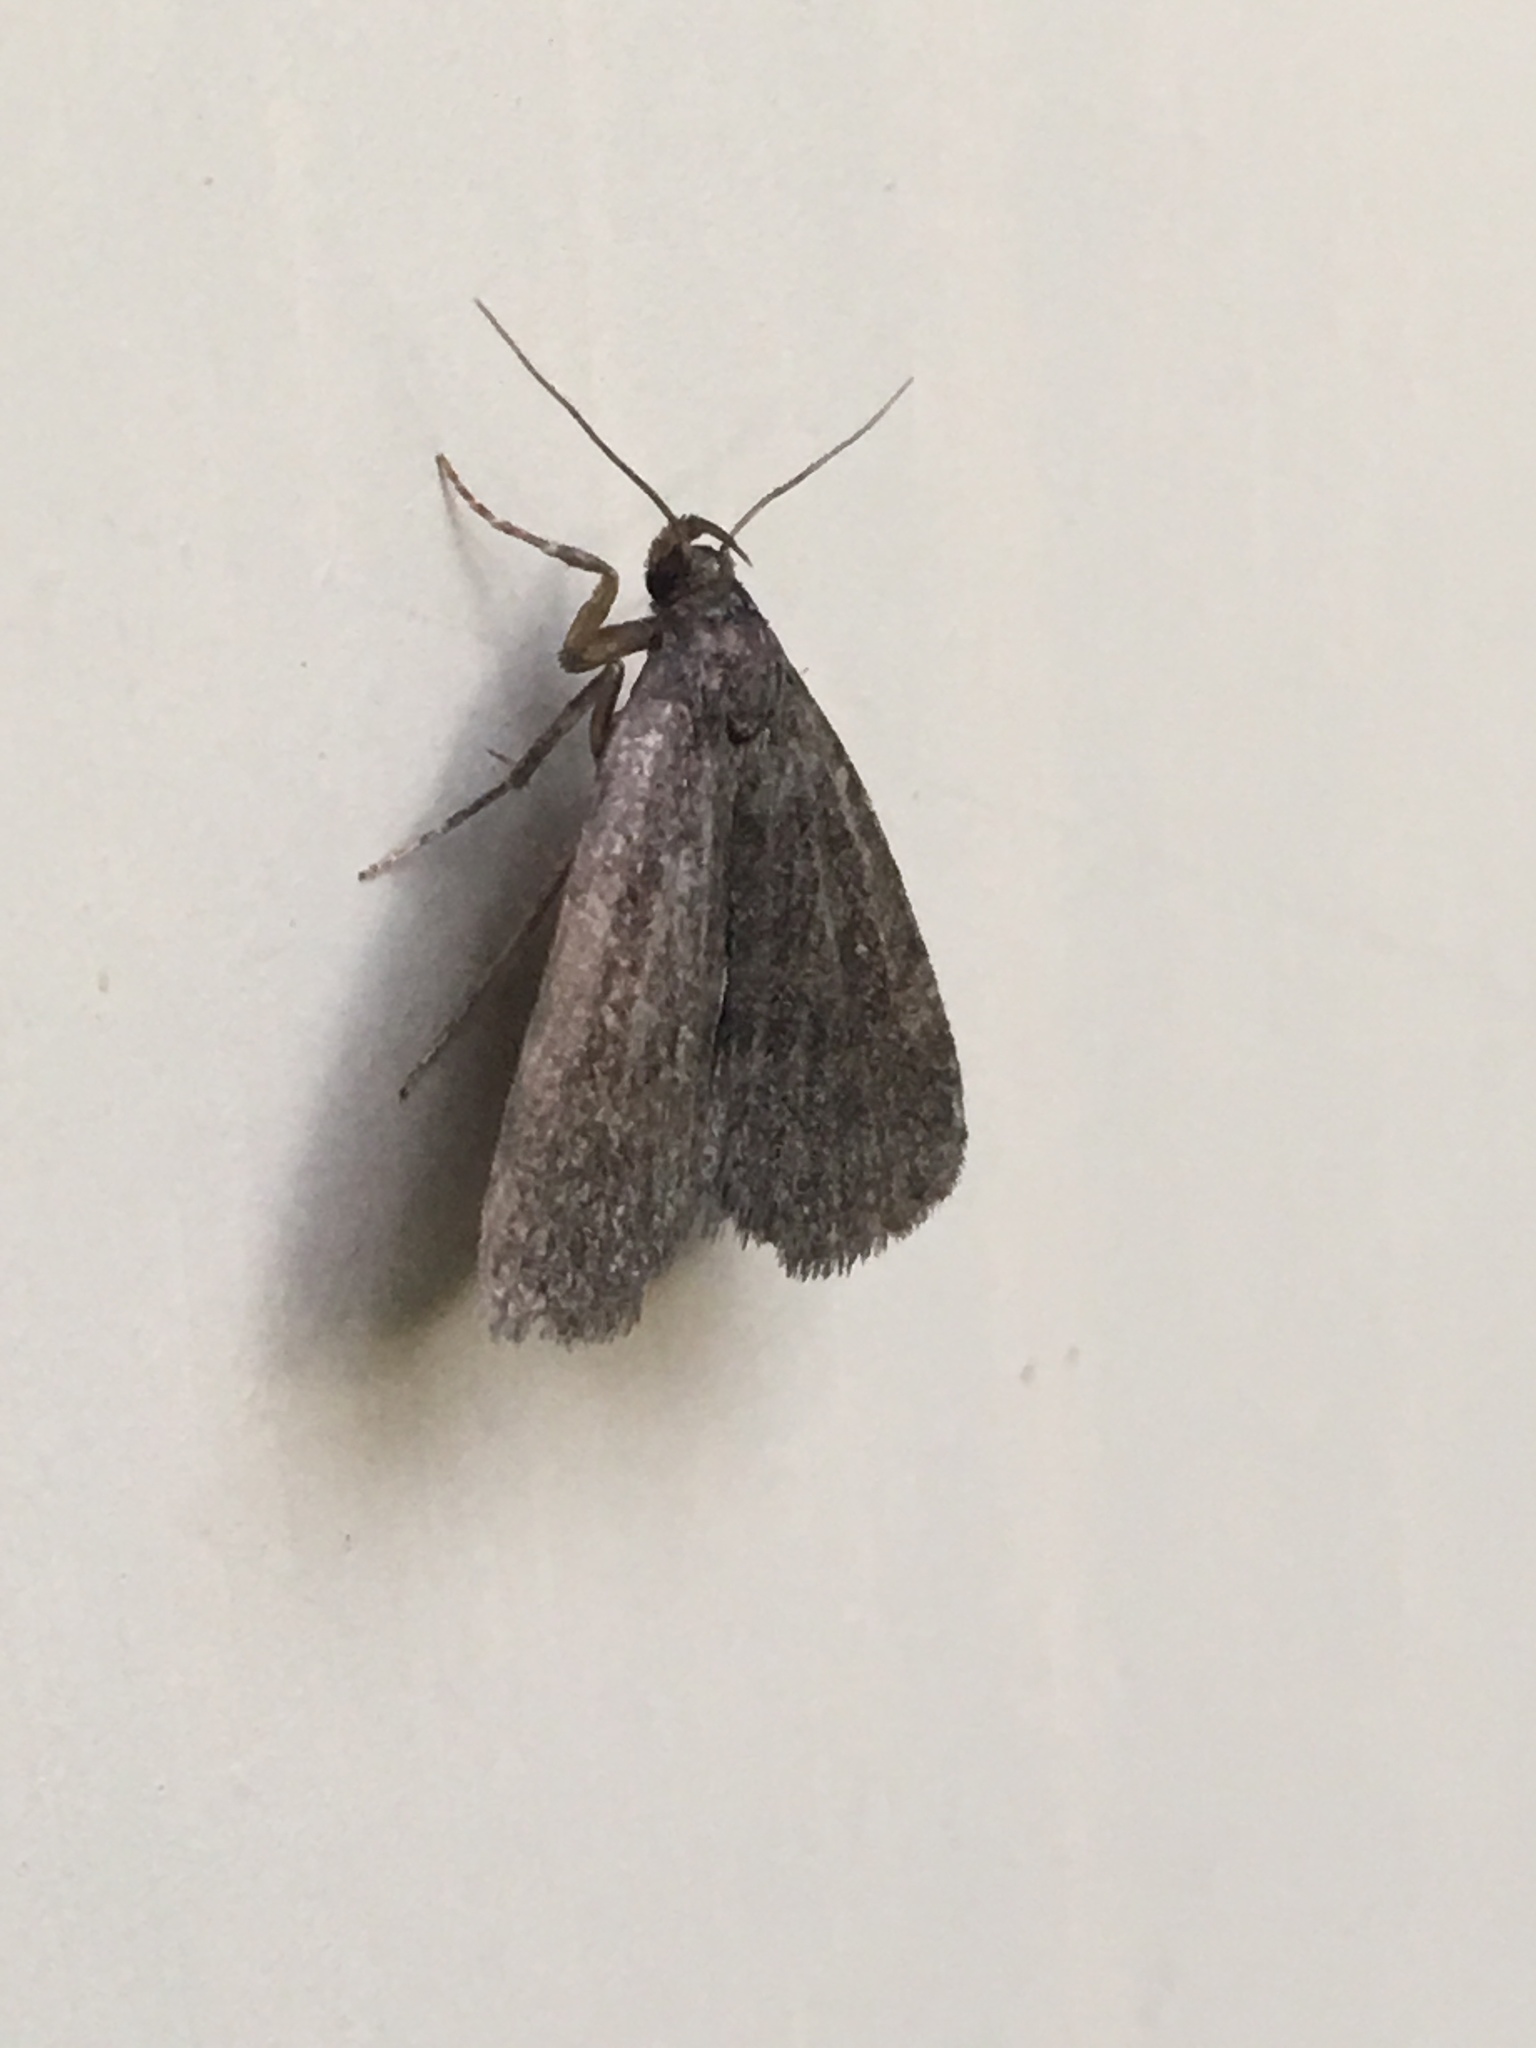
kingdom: Animalia
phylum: Arthropoda
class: Insecta
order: Lepidoptera
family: Erebidae
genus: Idia
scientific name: Idia rotundalis
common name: Rotund idia moth
